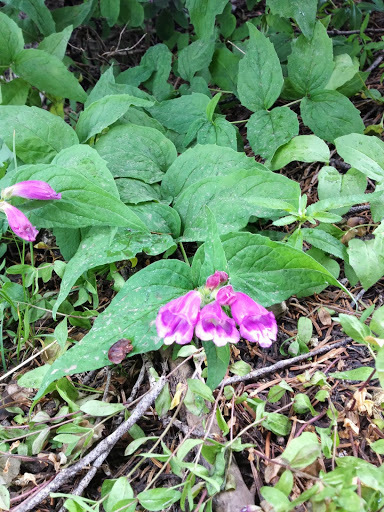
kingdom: Plantae
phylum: Tracheophyta
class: Magnoliopsida
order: Lamiales
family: Plantaginaceae
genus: Nothochelone
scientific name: Nothochelone nemorosa
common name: Woodland beardtongue
